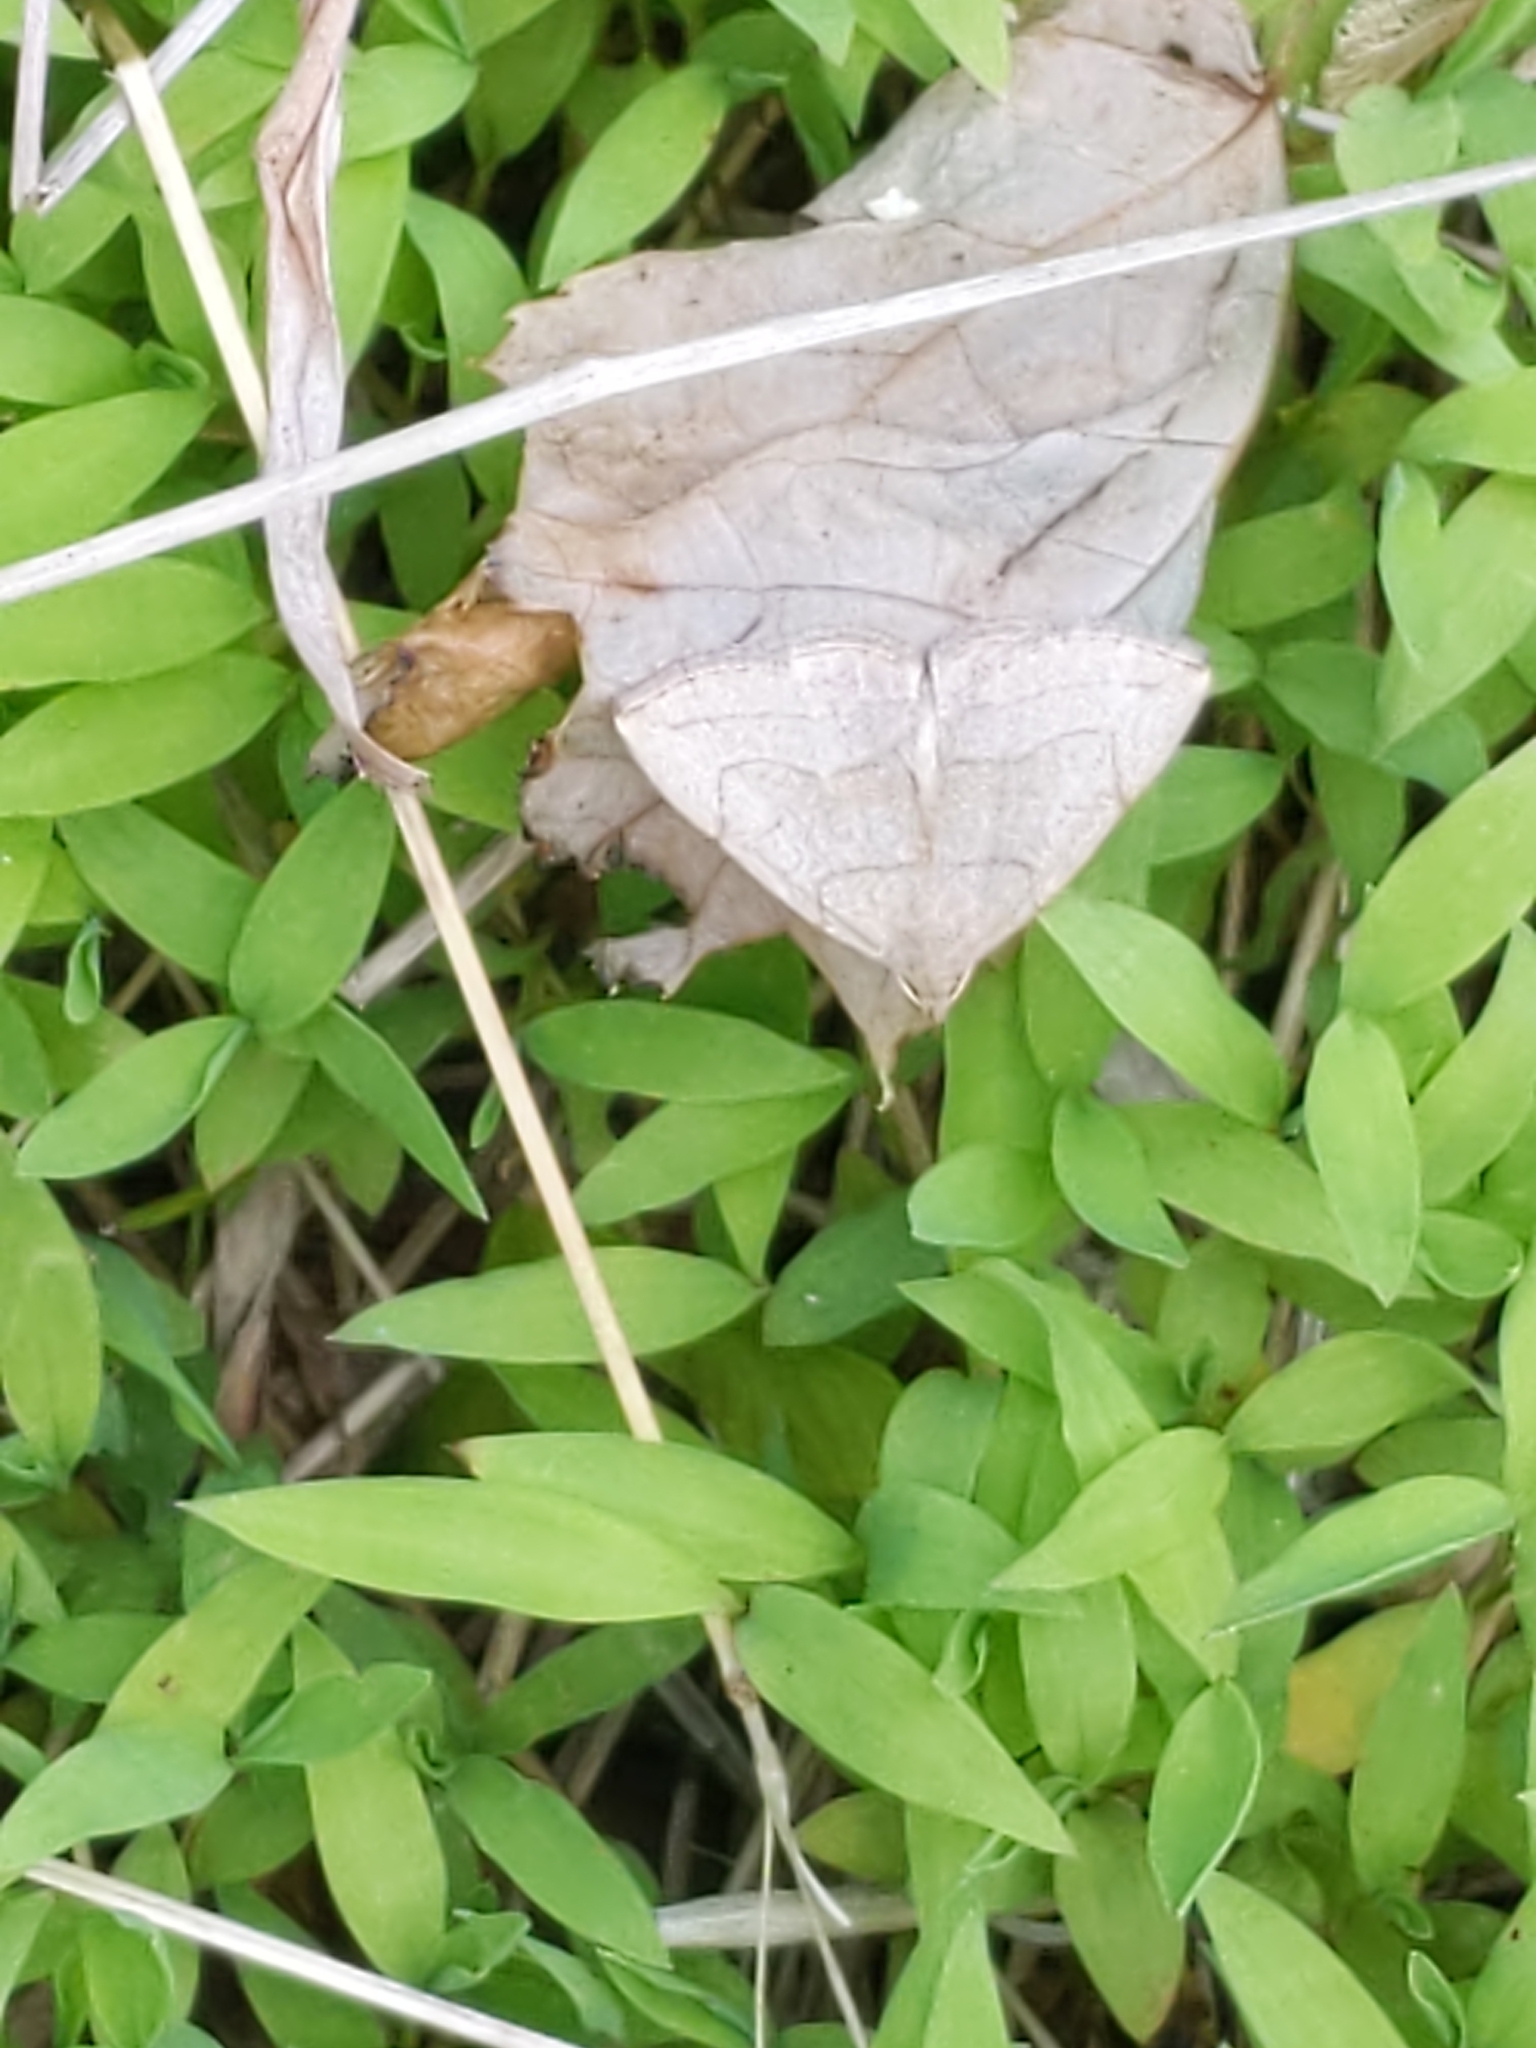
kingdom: Animalia
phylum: Arthropoda
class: Insecta
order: Lepidoptera
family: Erebidae
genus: Zanclognatha
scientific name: Zanclognatha pedipilalis
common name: Grayish fan-foot
